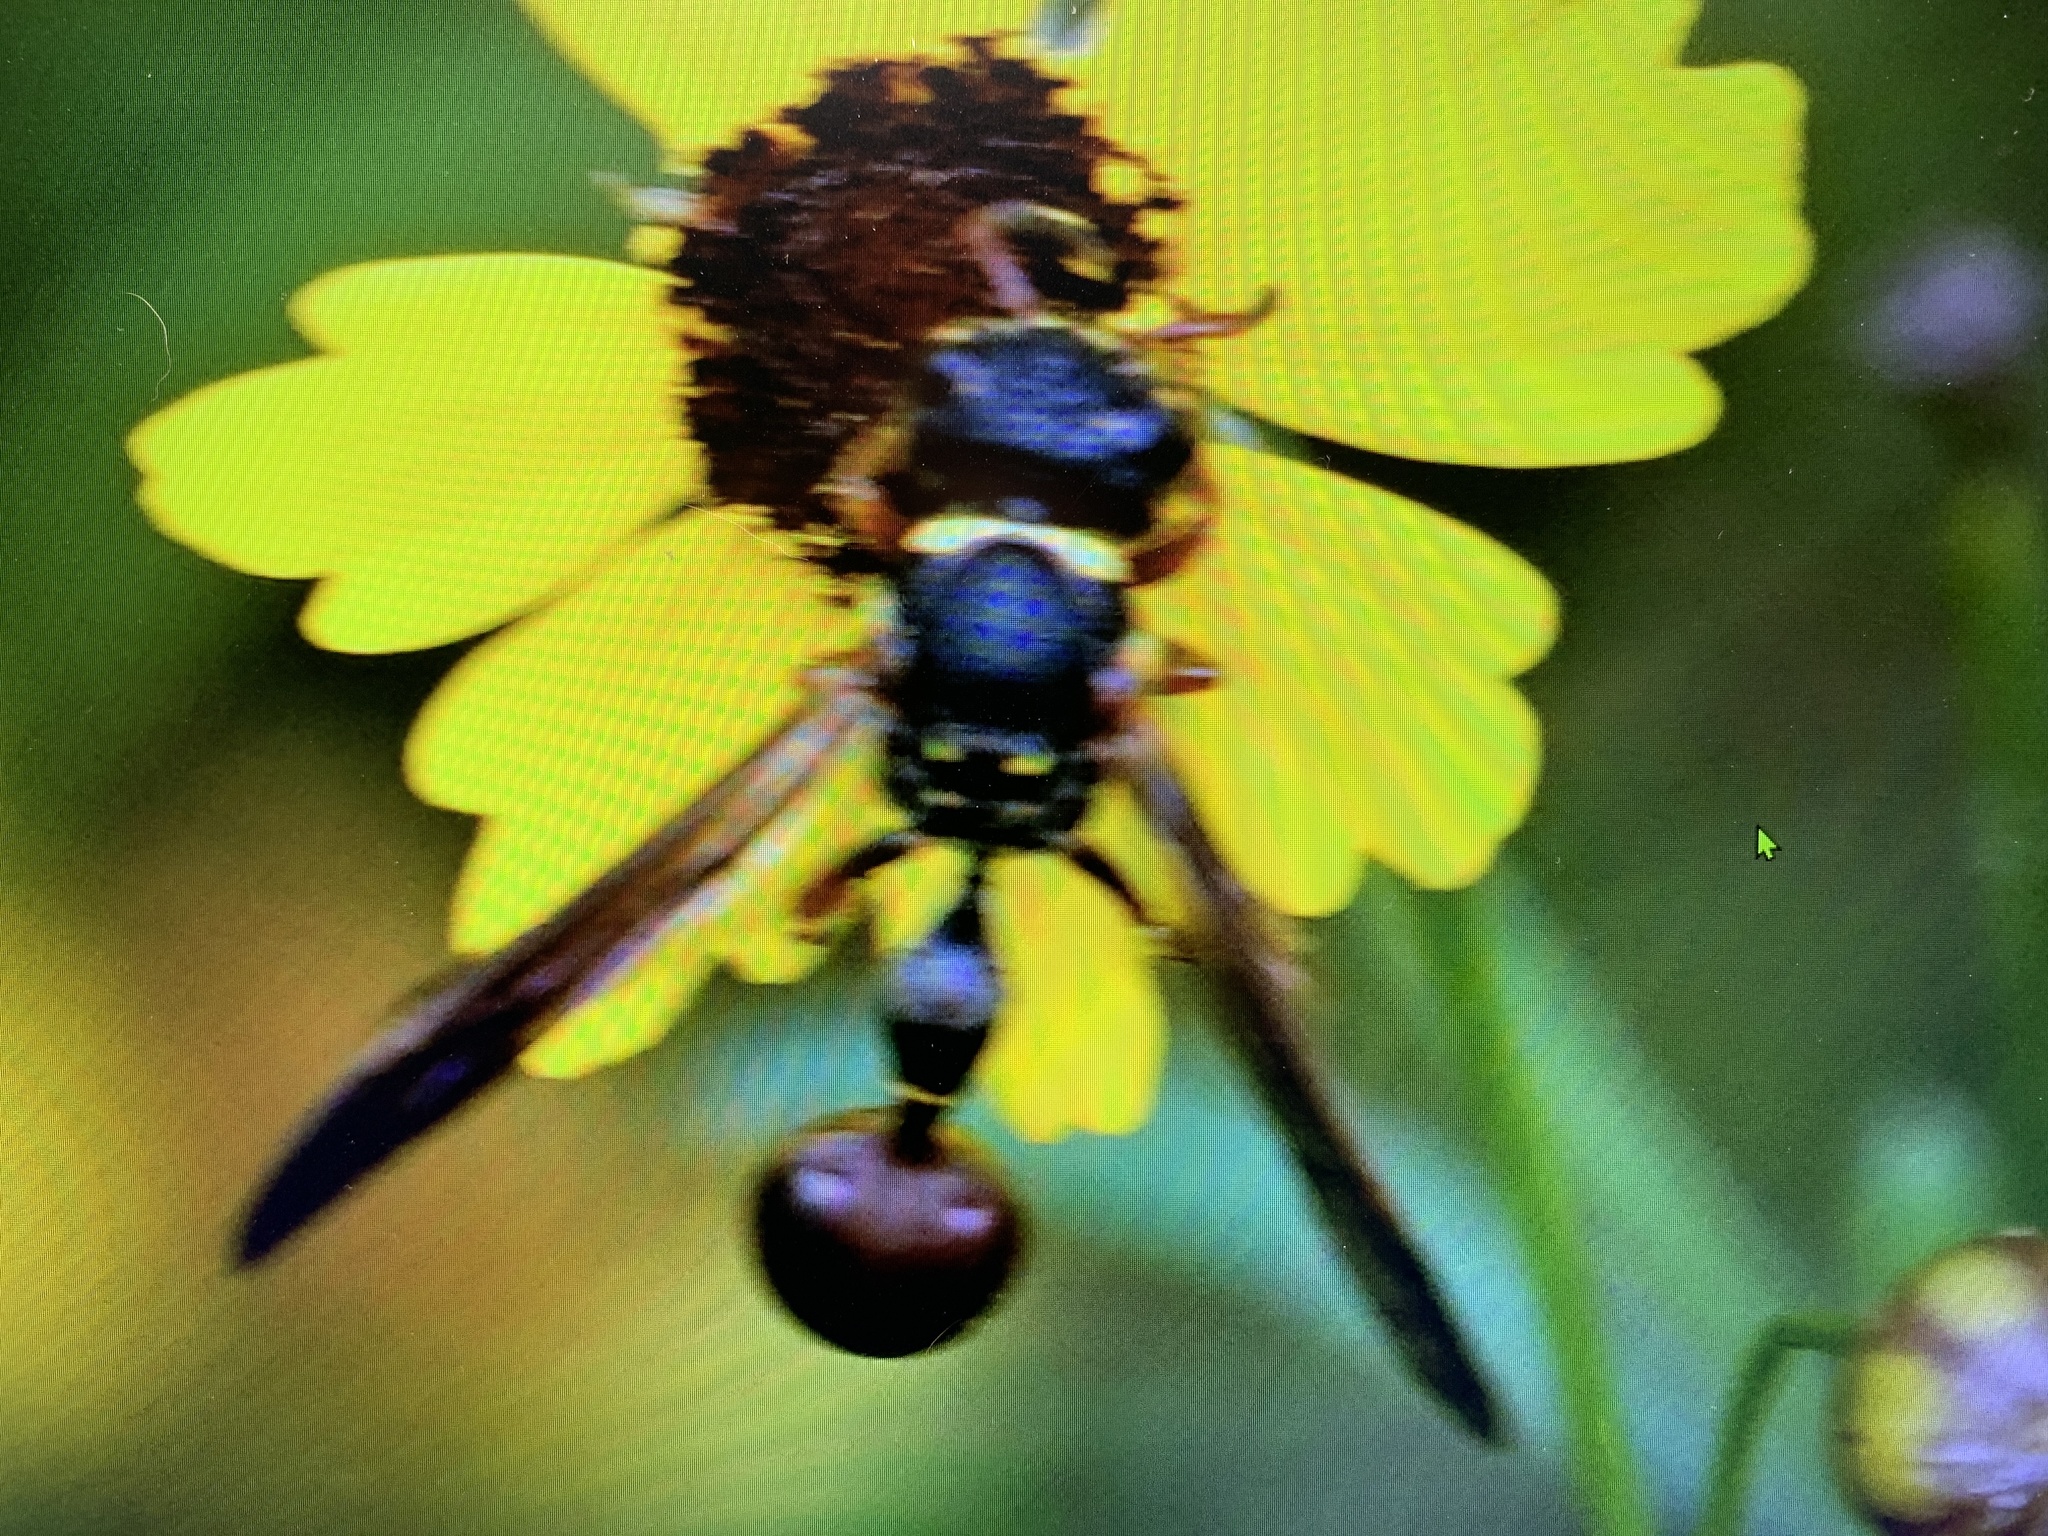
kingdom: Animalia
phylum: Arthropoda
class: Insecta
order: Hymenoptera
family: Eumenidae
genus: Zethus
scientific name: Zethus slossonae
